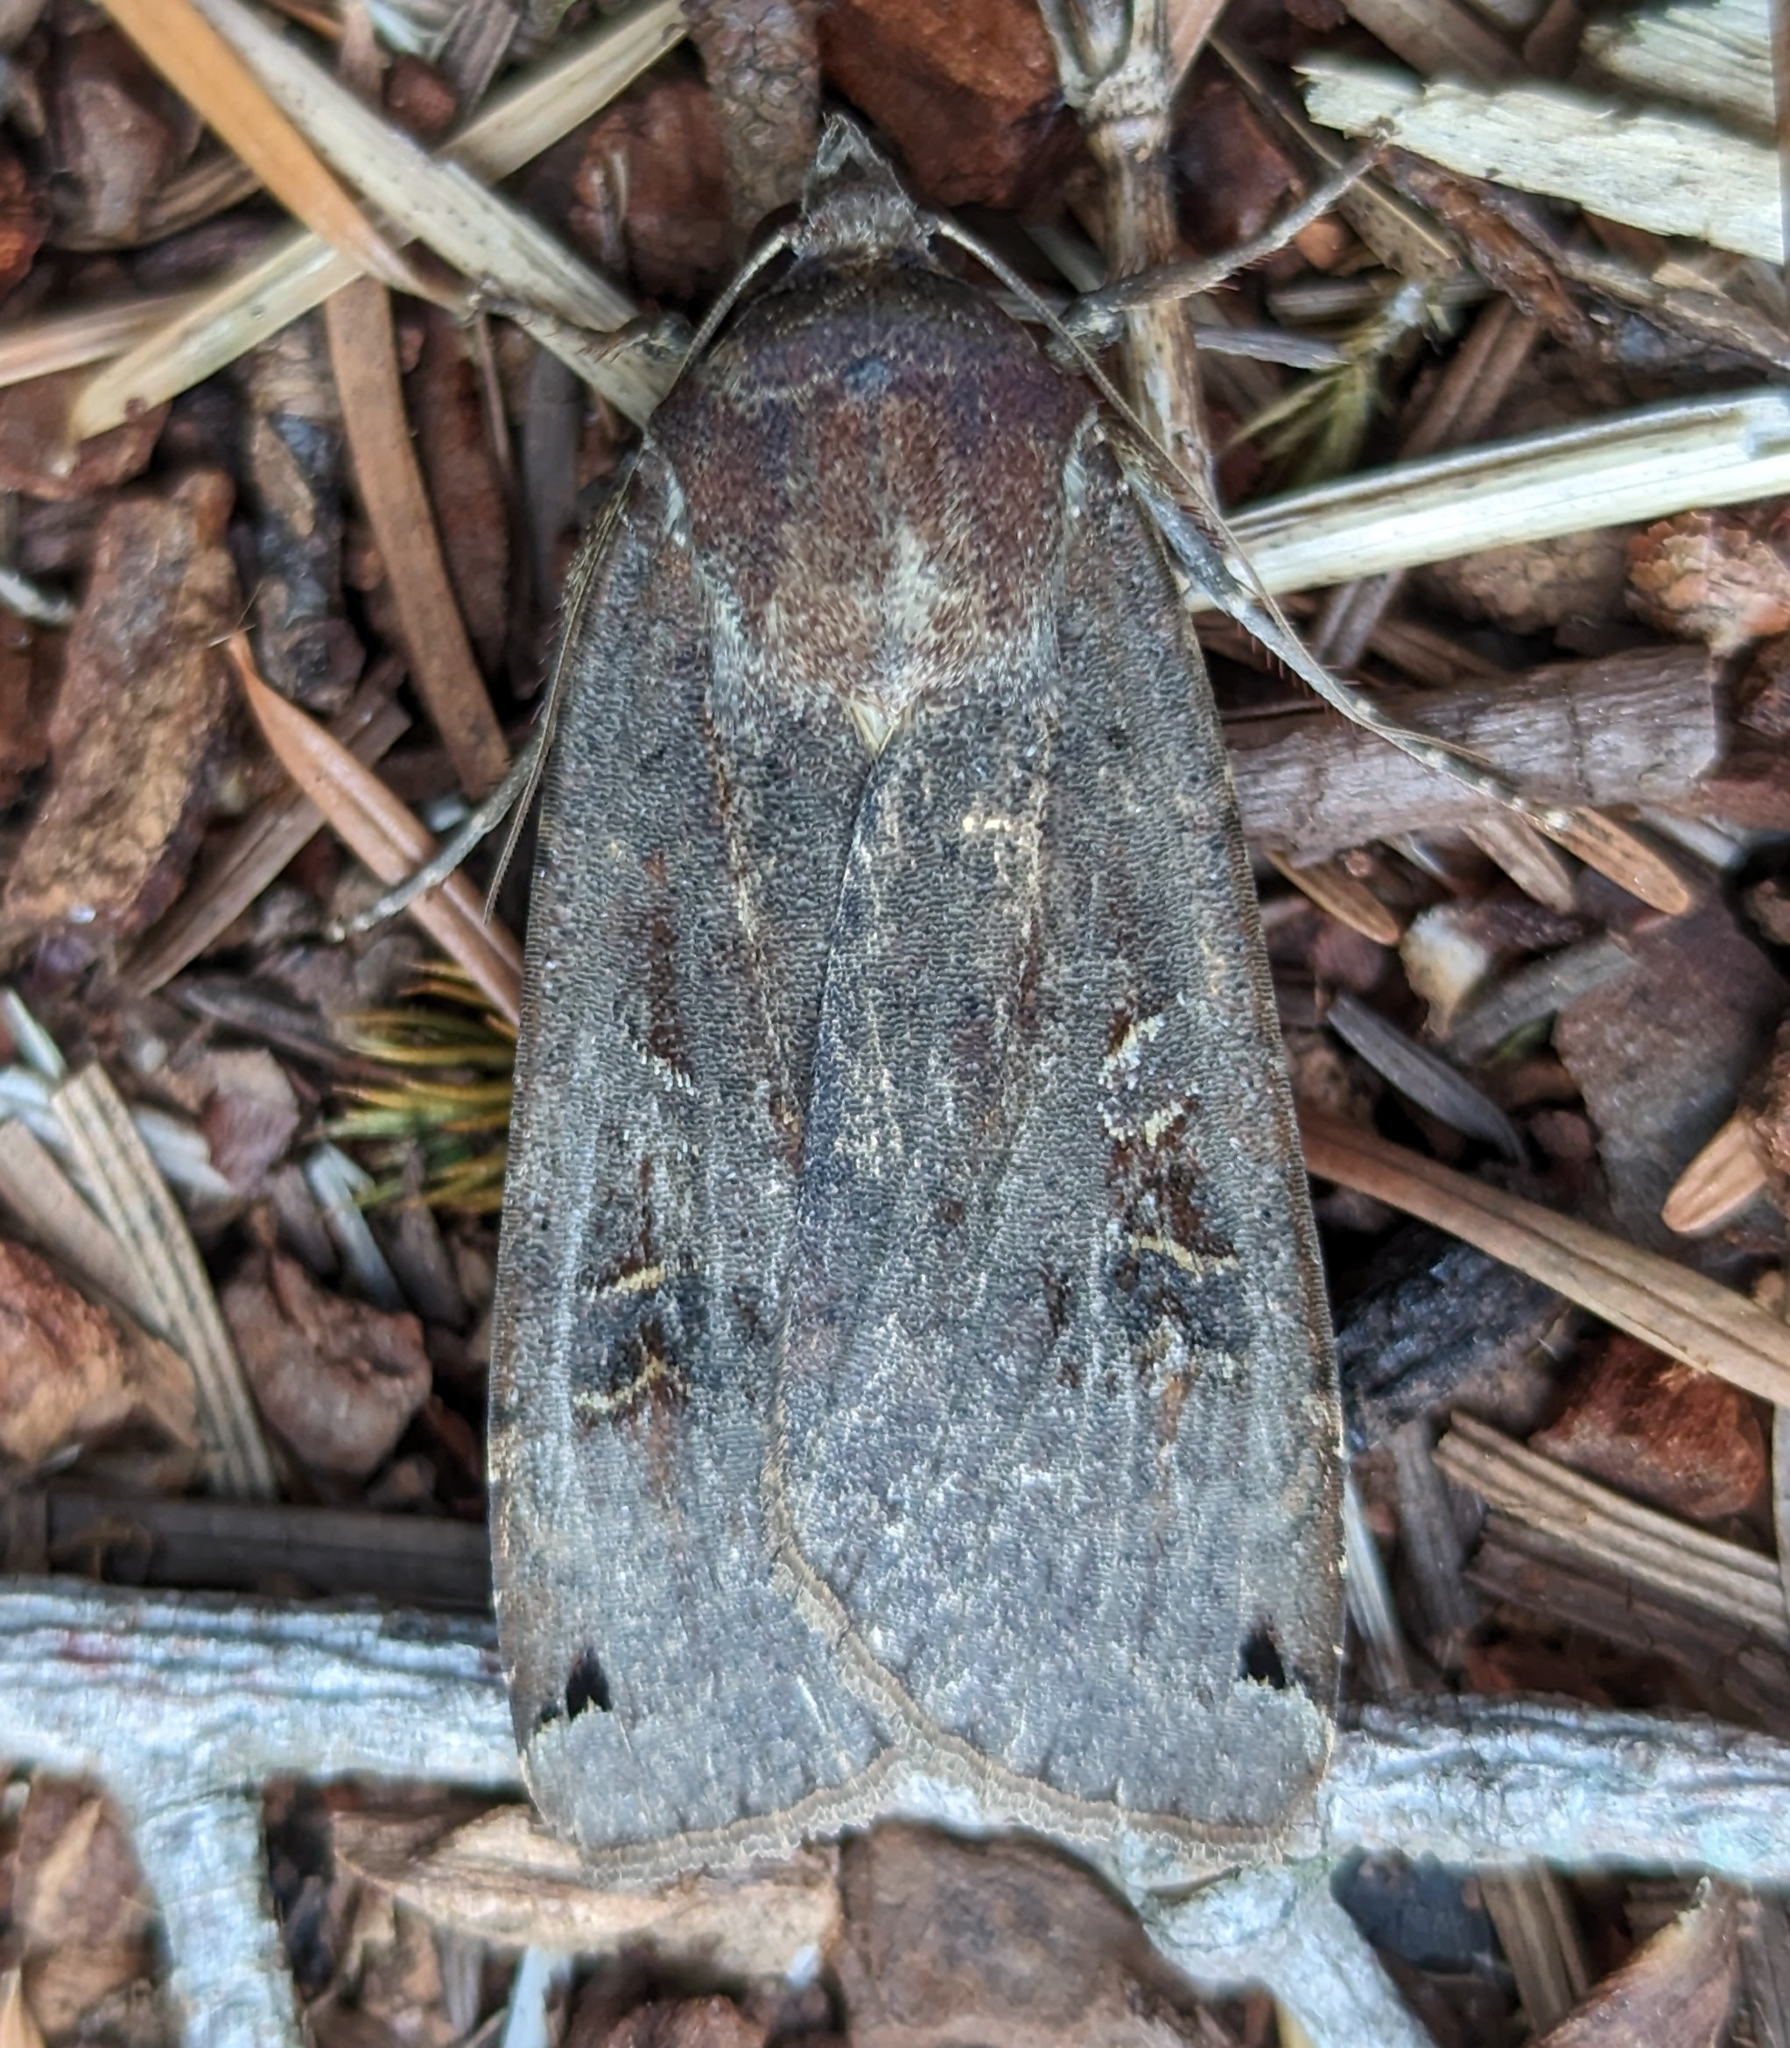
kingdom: Animalia
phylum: Arthropoda
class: Insecta
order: Lepidoptera
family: Noctuidae
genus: Noctua
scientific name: Noctua pronuba
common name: Large yellow underwing
